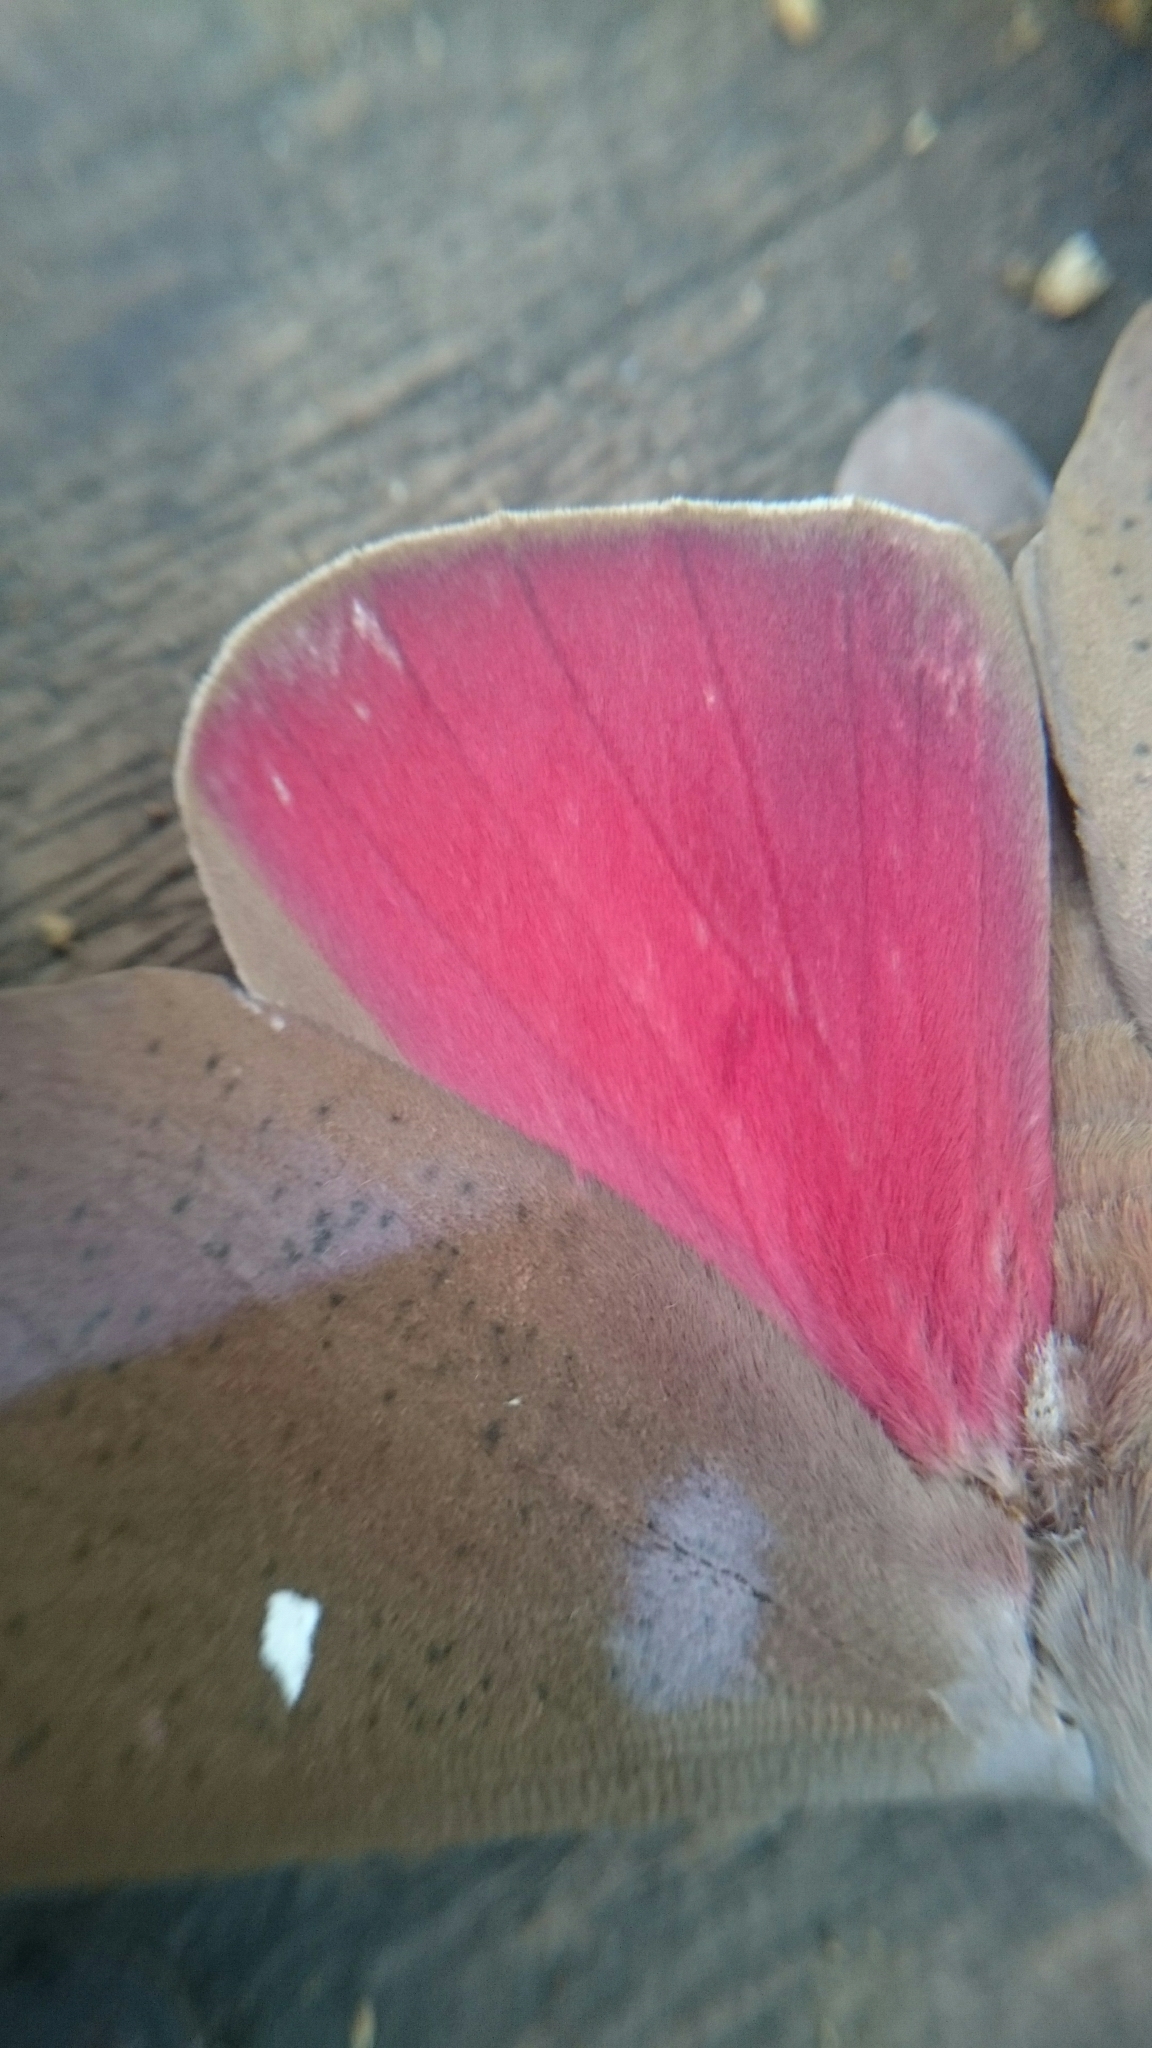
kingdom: Animalia
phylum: Arthropoda
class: Insecta
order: Lepidoptera
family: Saturniidae
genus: Othorene
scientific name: Othorene hodeva
